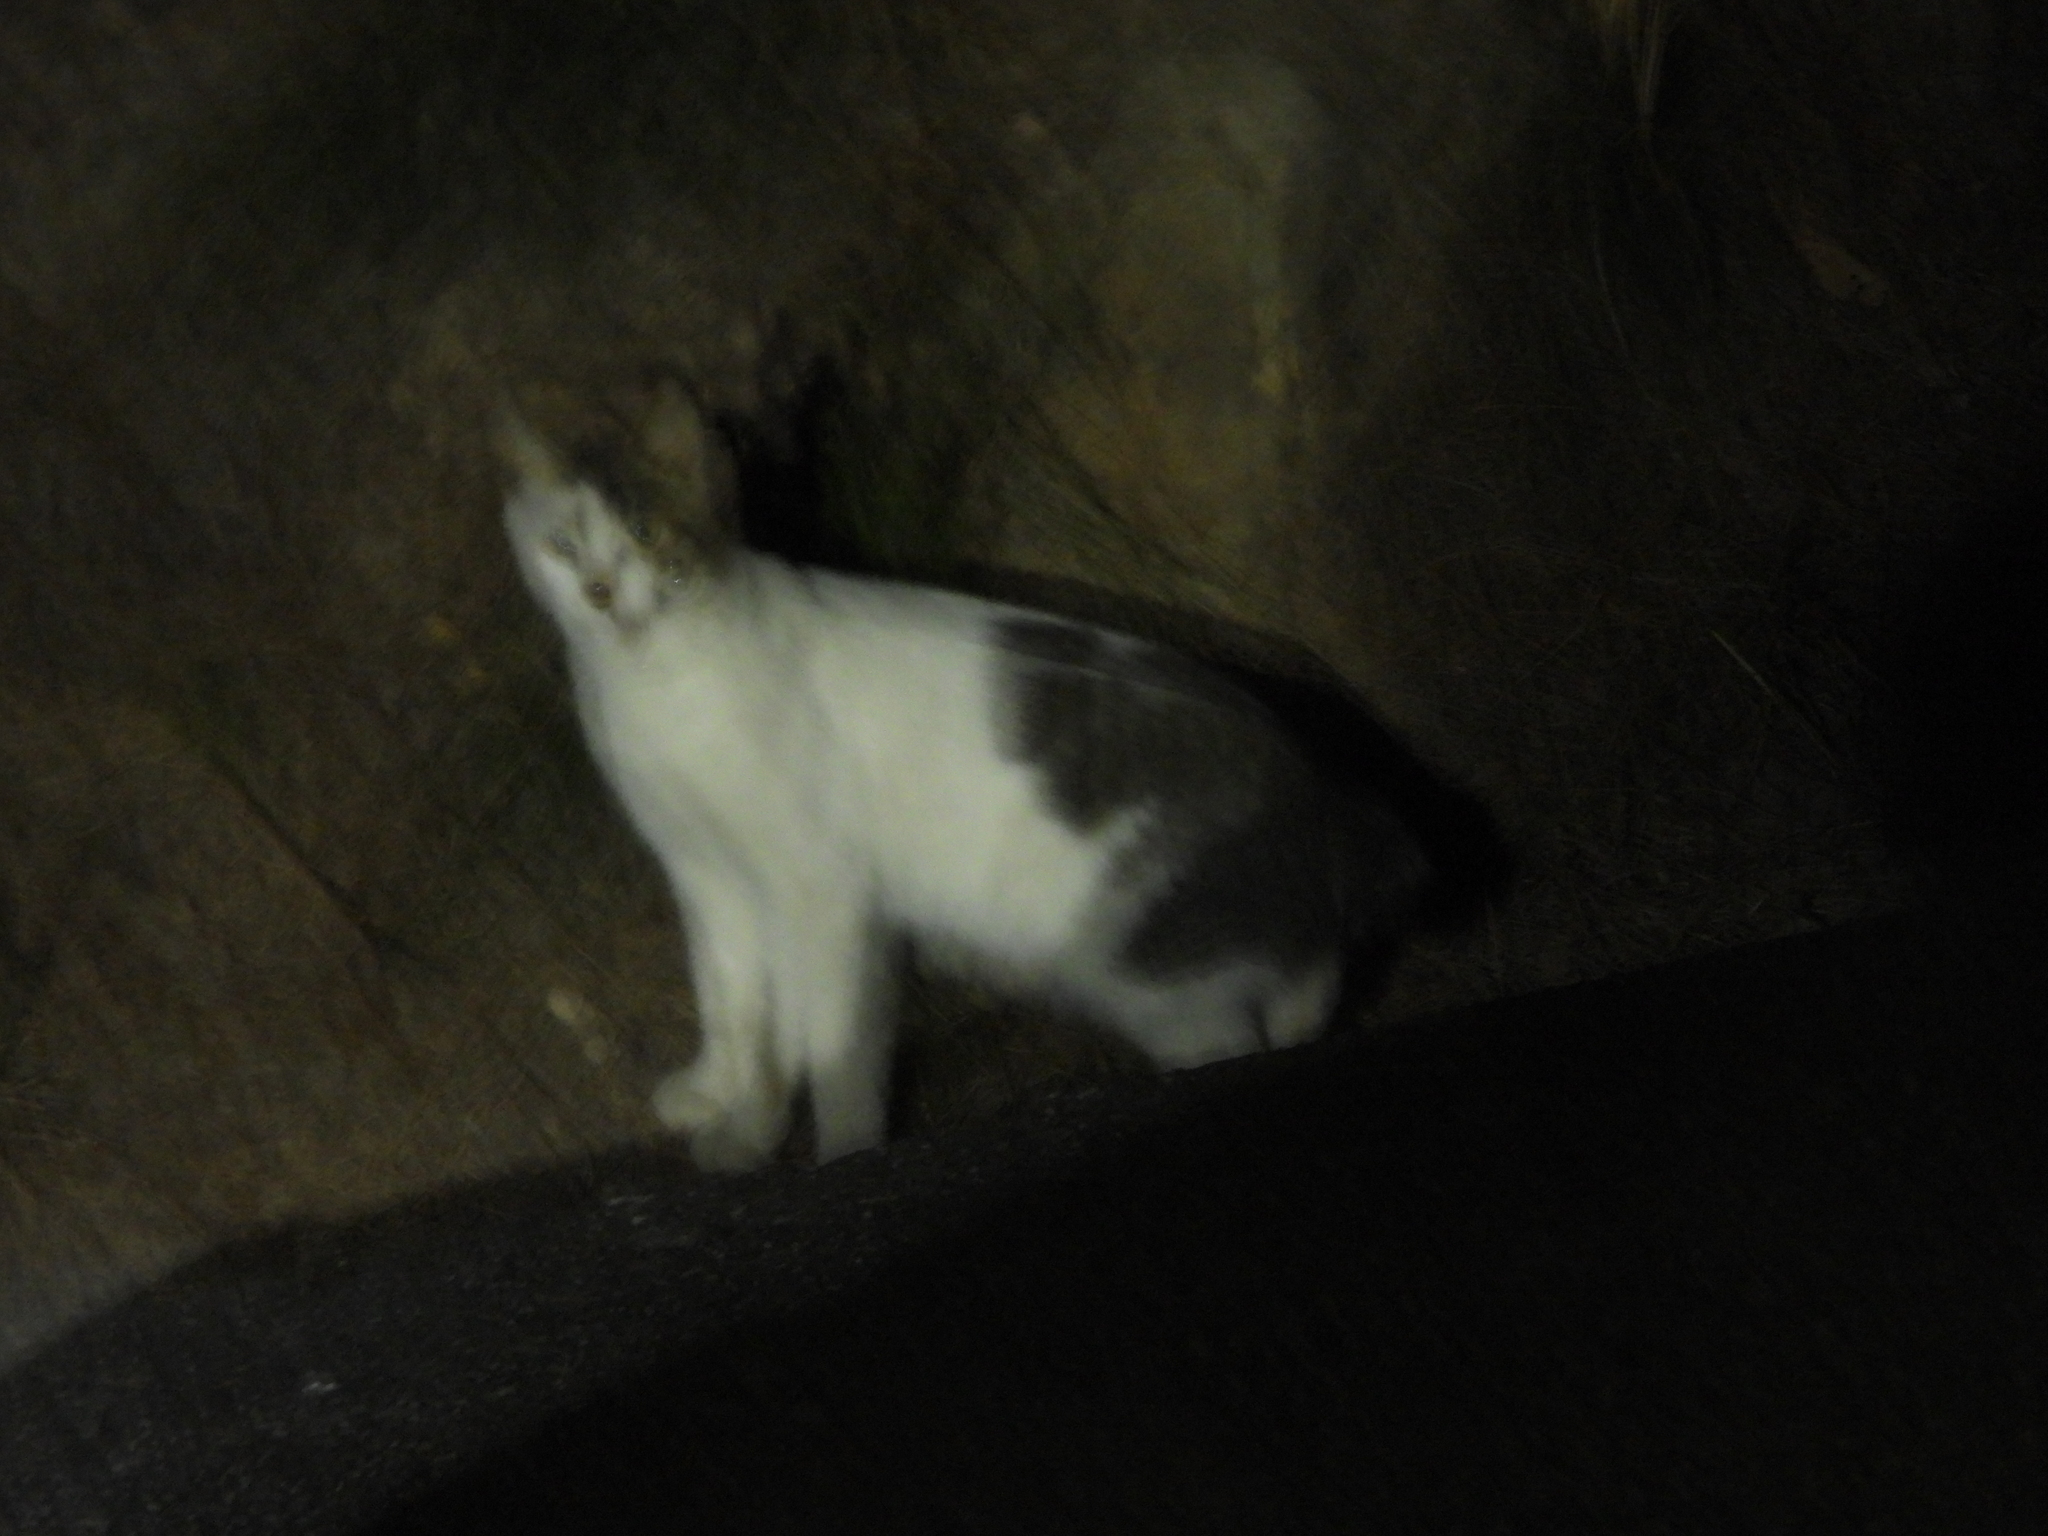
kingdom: Animalia
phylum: Chordata
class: Mammalia
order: Carnivora
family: Felidae
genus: Felis
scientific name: Felis catus
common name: Domestic cat
